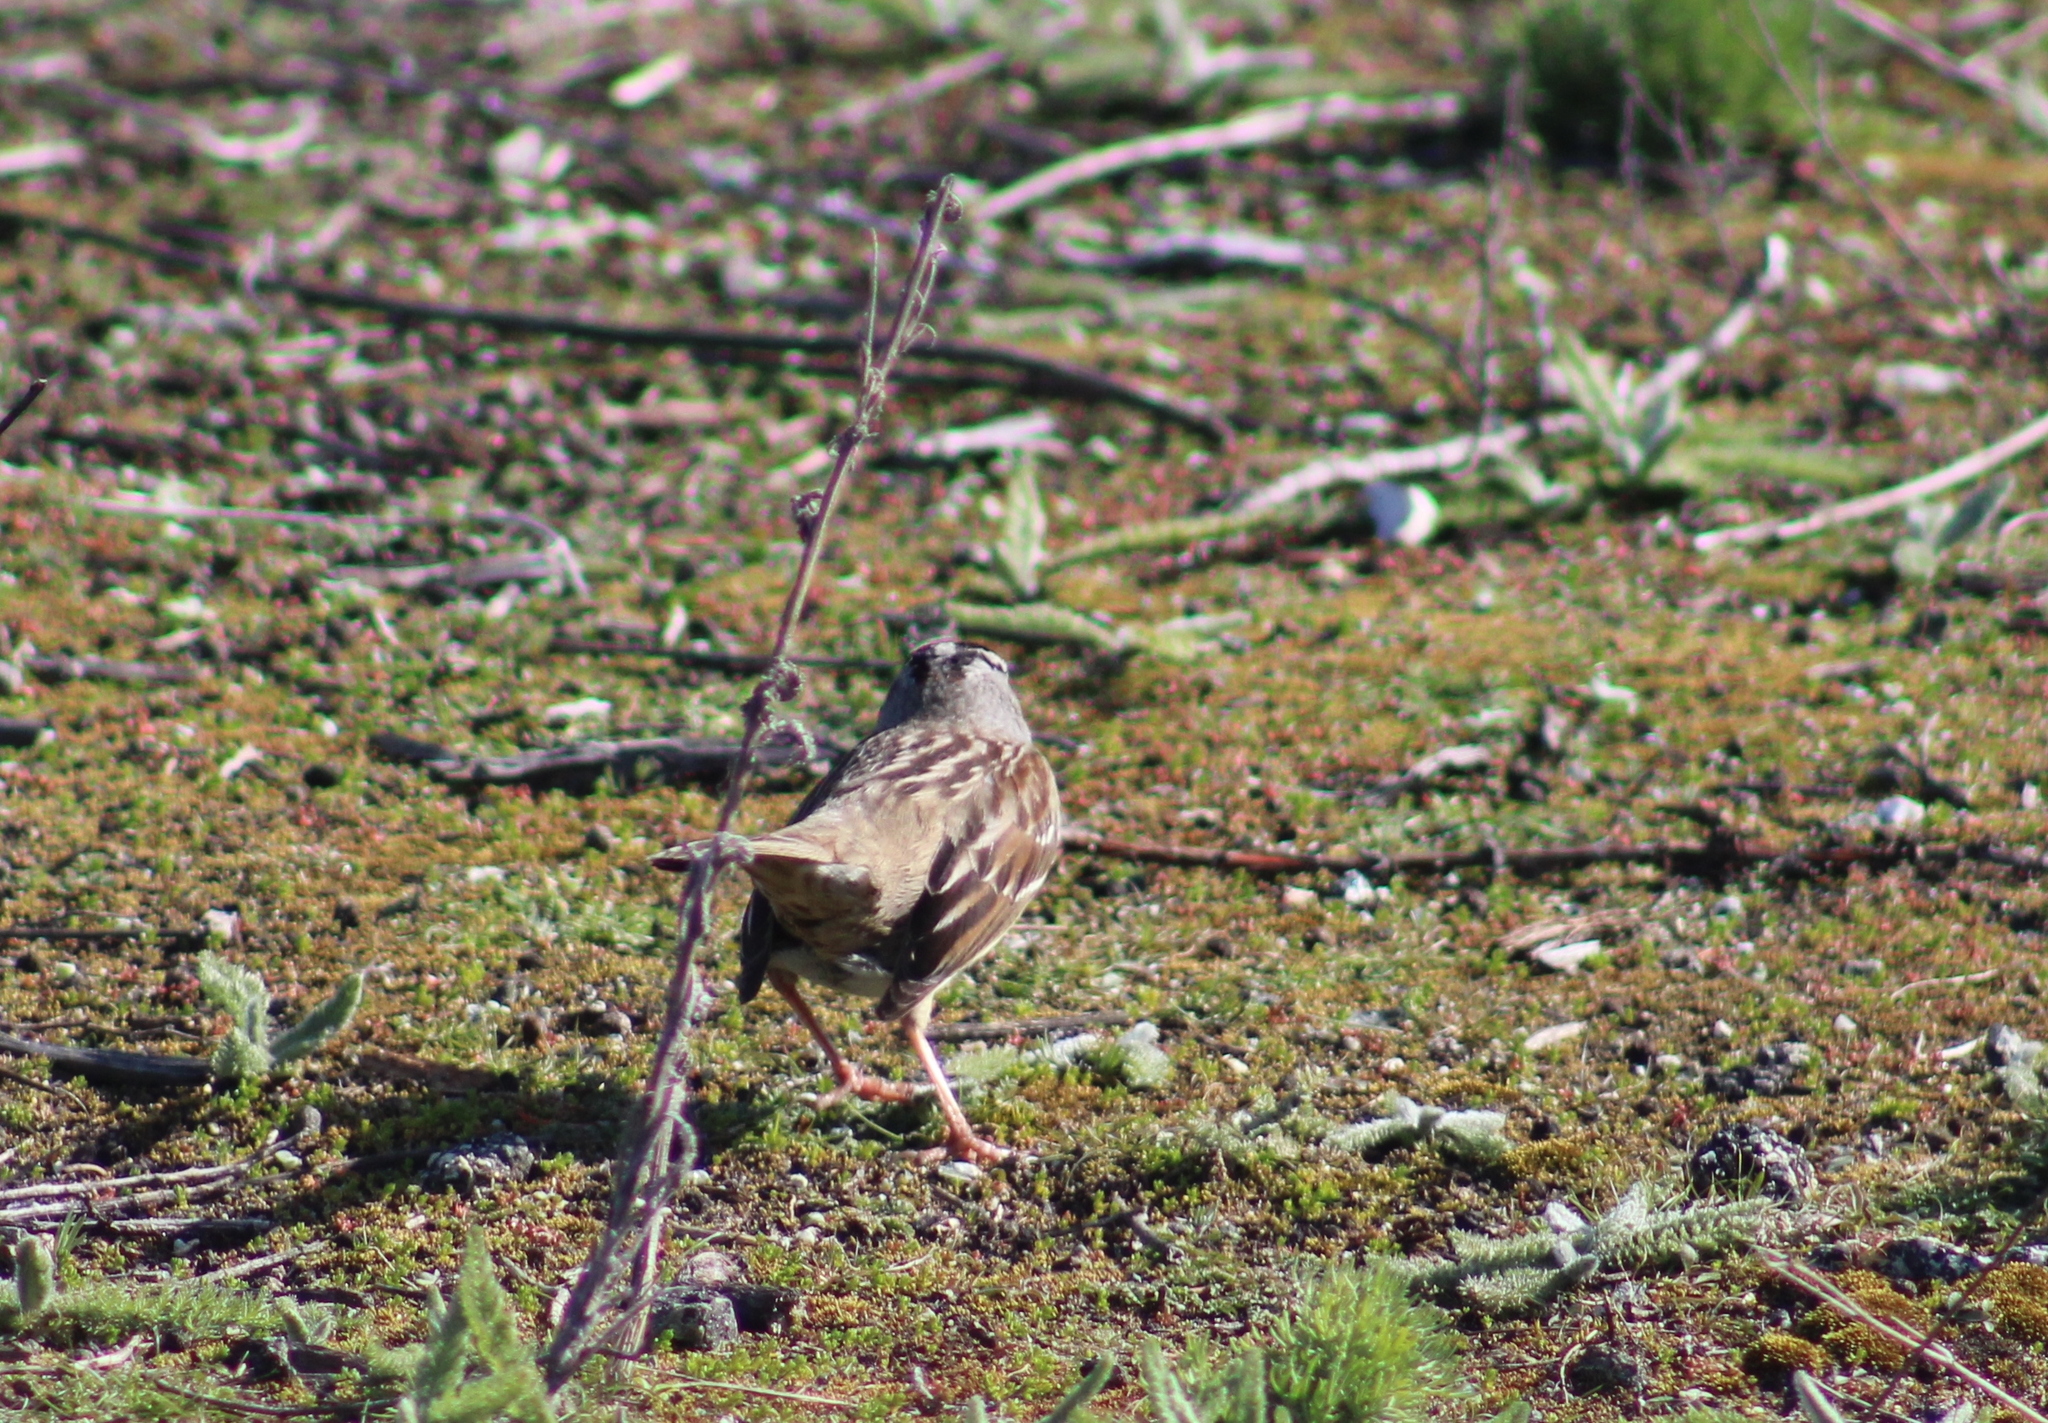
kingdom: Animalia
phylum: Chordata
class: Aves
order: Passeriformes
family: Passerellidae
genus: Zonotrichia
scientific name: Zonotrichia leucophrys
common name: White-crowned sparrow
